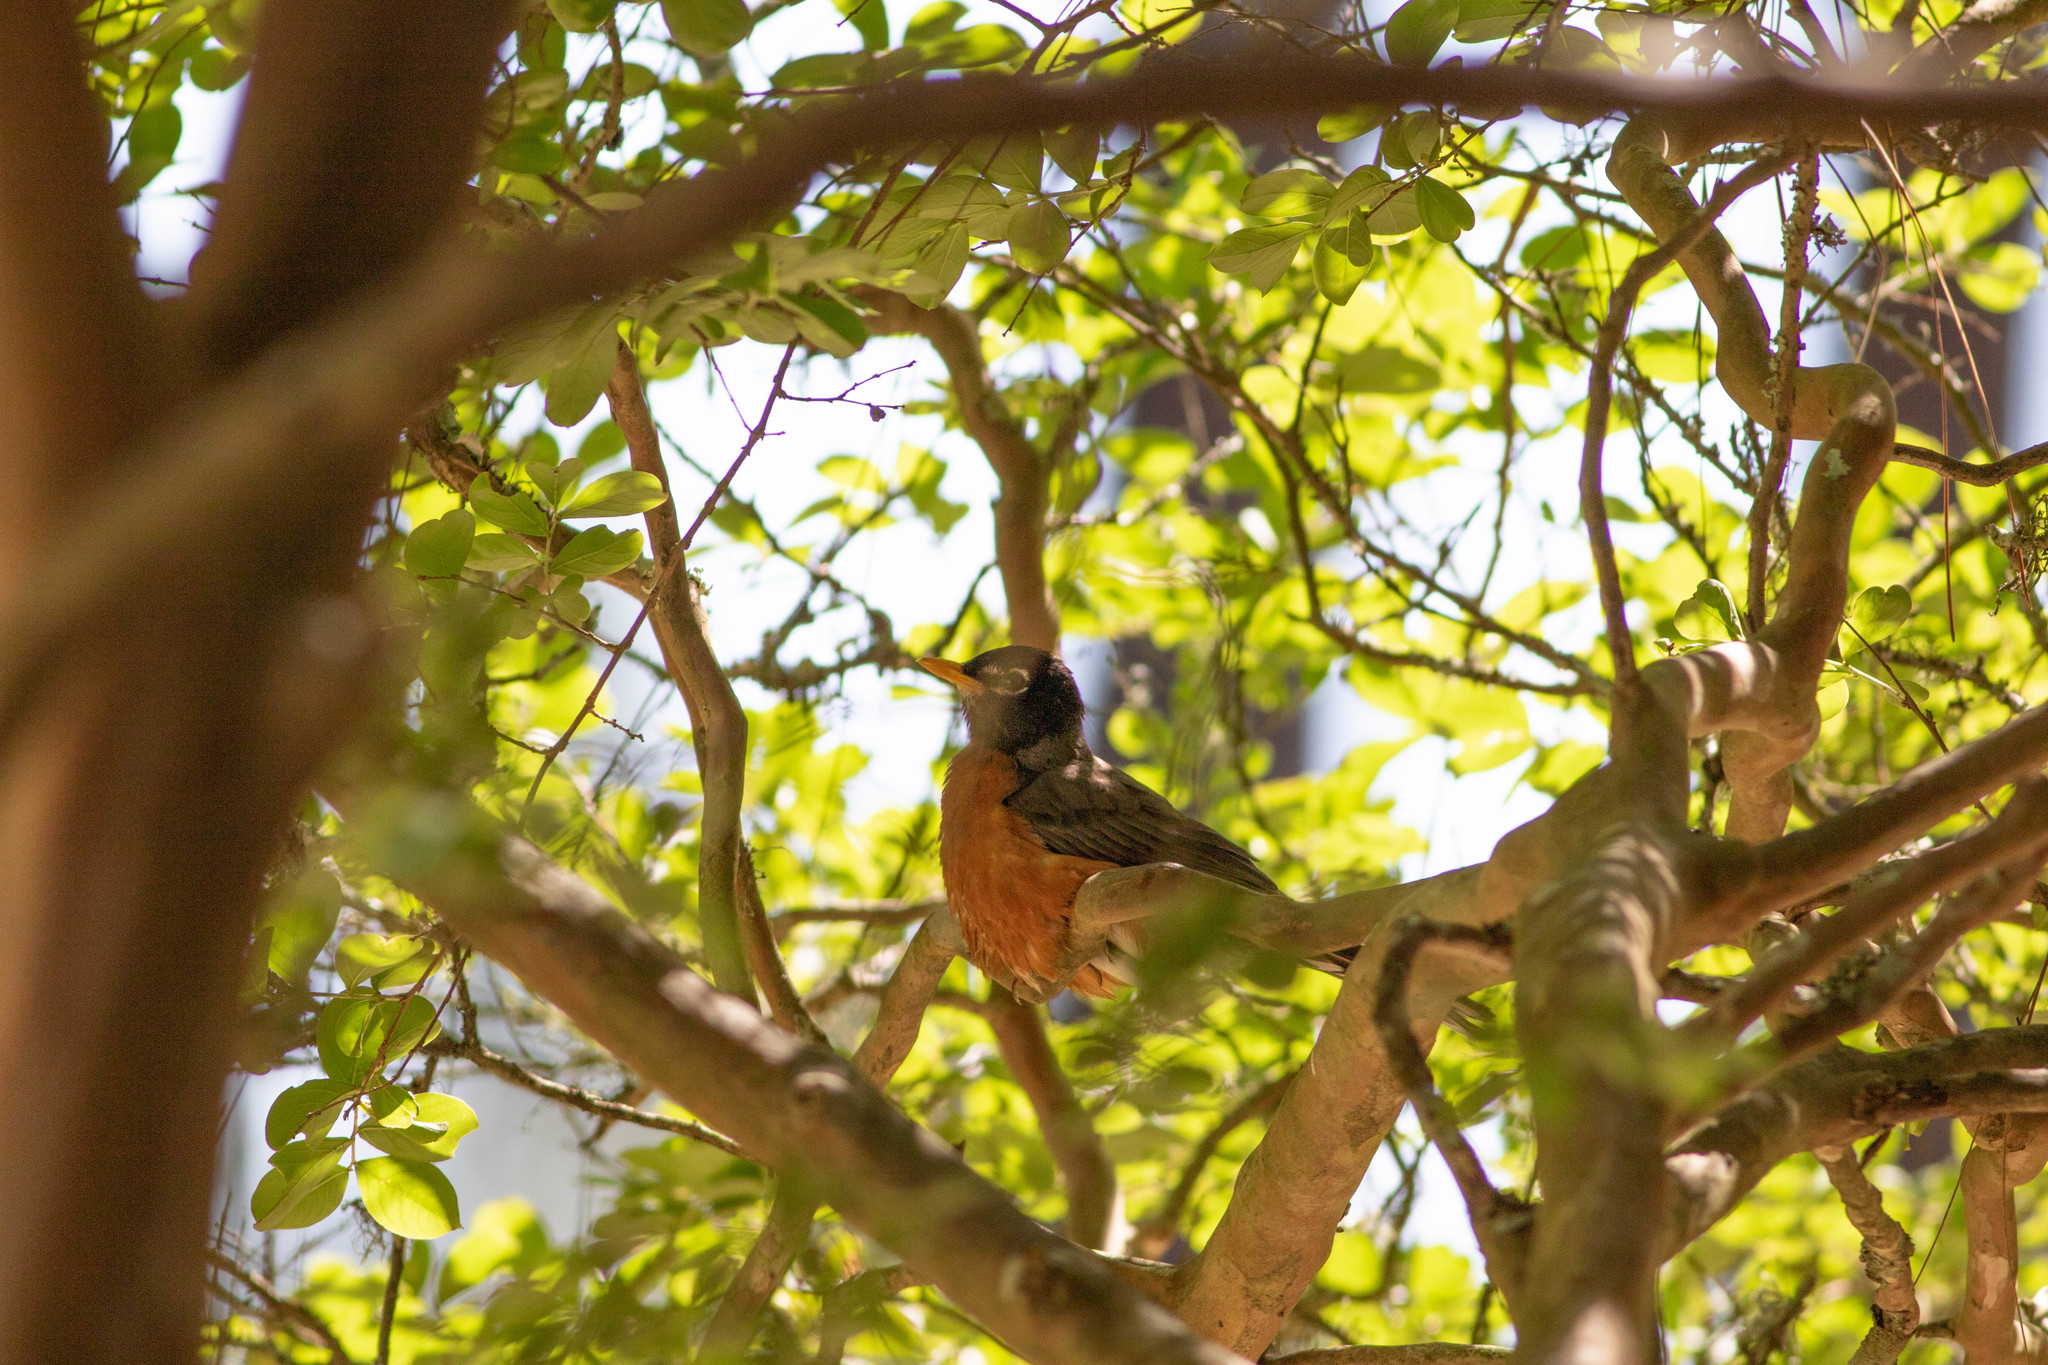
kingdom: Animalia
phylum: Chordata
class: Aves
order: Passeriformes
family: Turdidae
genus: Turdus
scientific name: Turdus migratorius
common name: American robin
